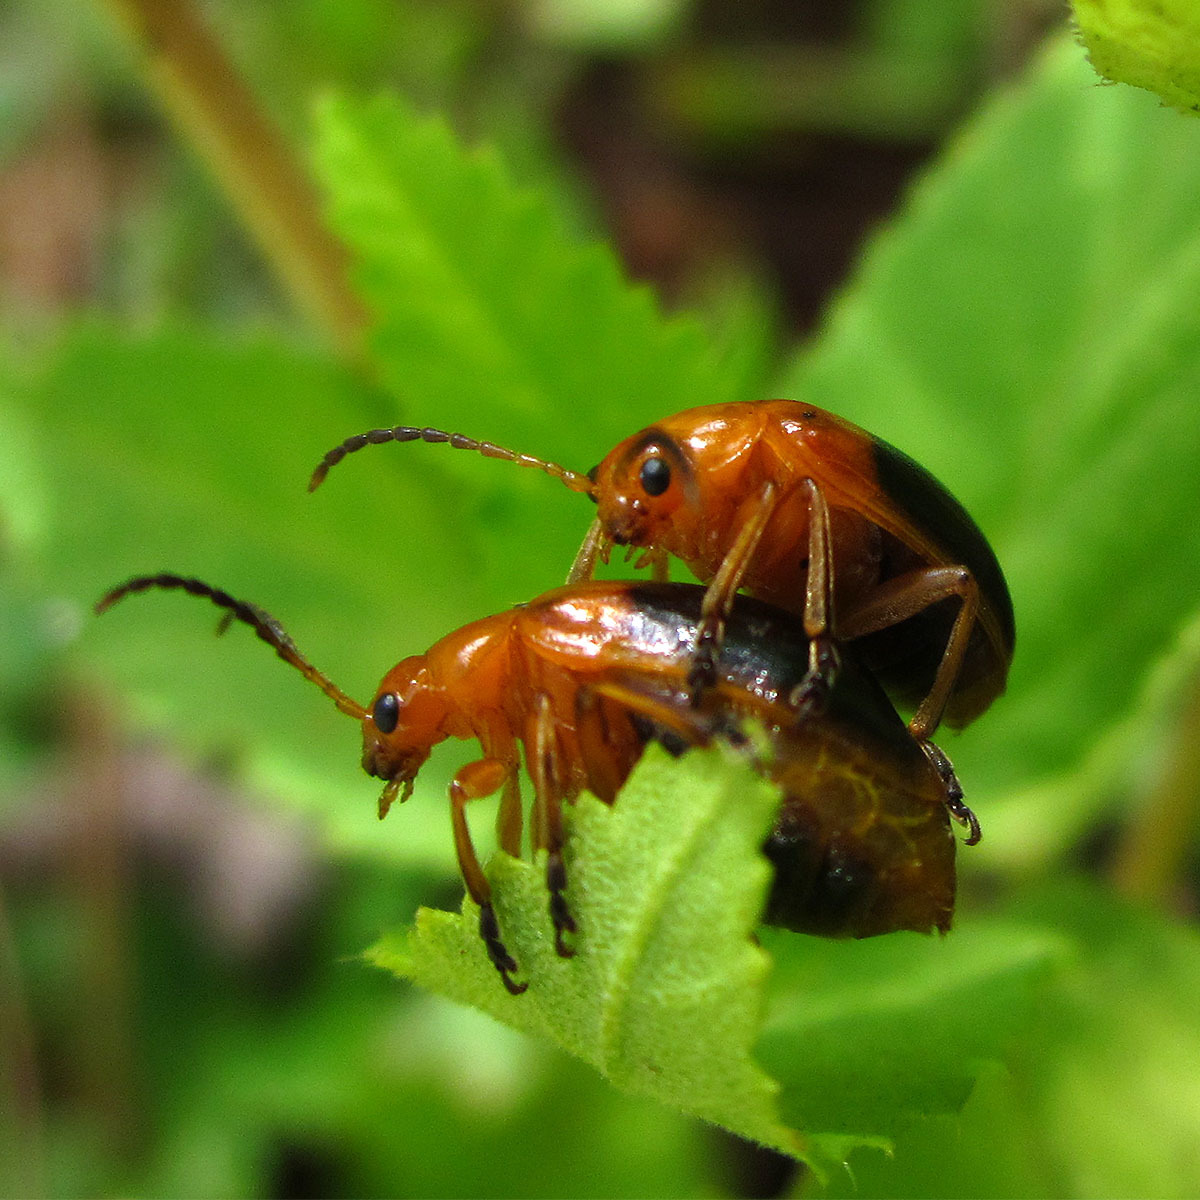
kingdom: Animalia
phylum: Arthropoda
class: Insecta
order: Coleoptera
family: Chrysomelidae
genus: Oides
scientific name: Oides affinis
